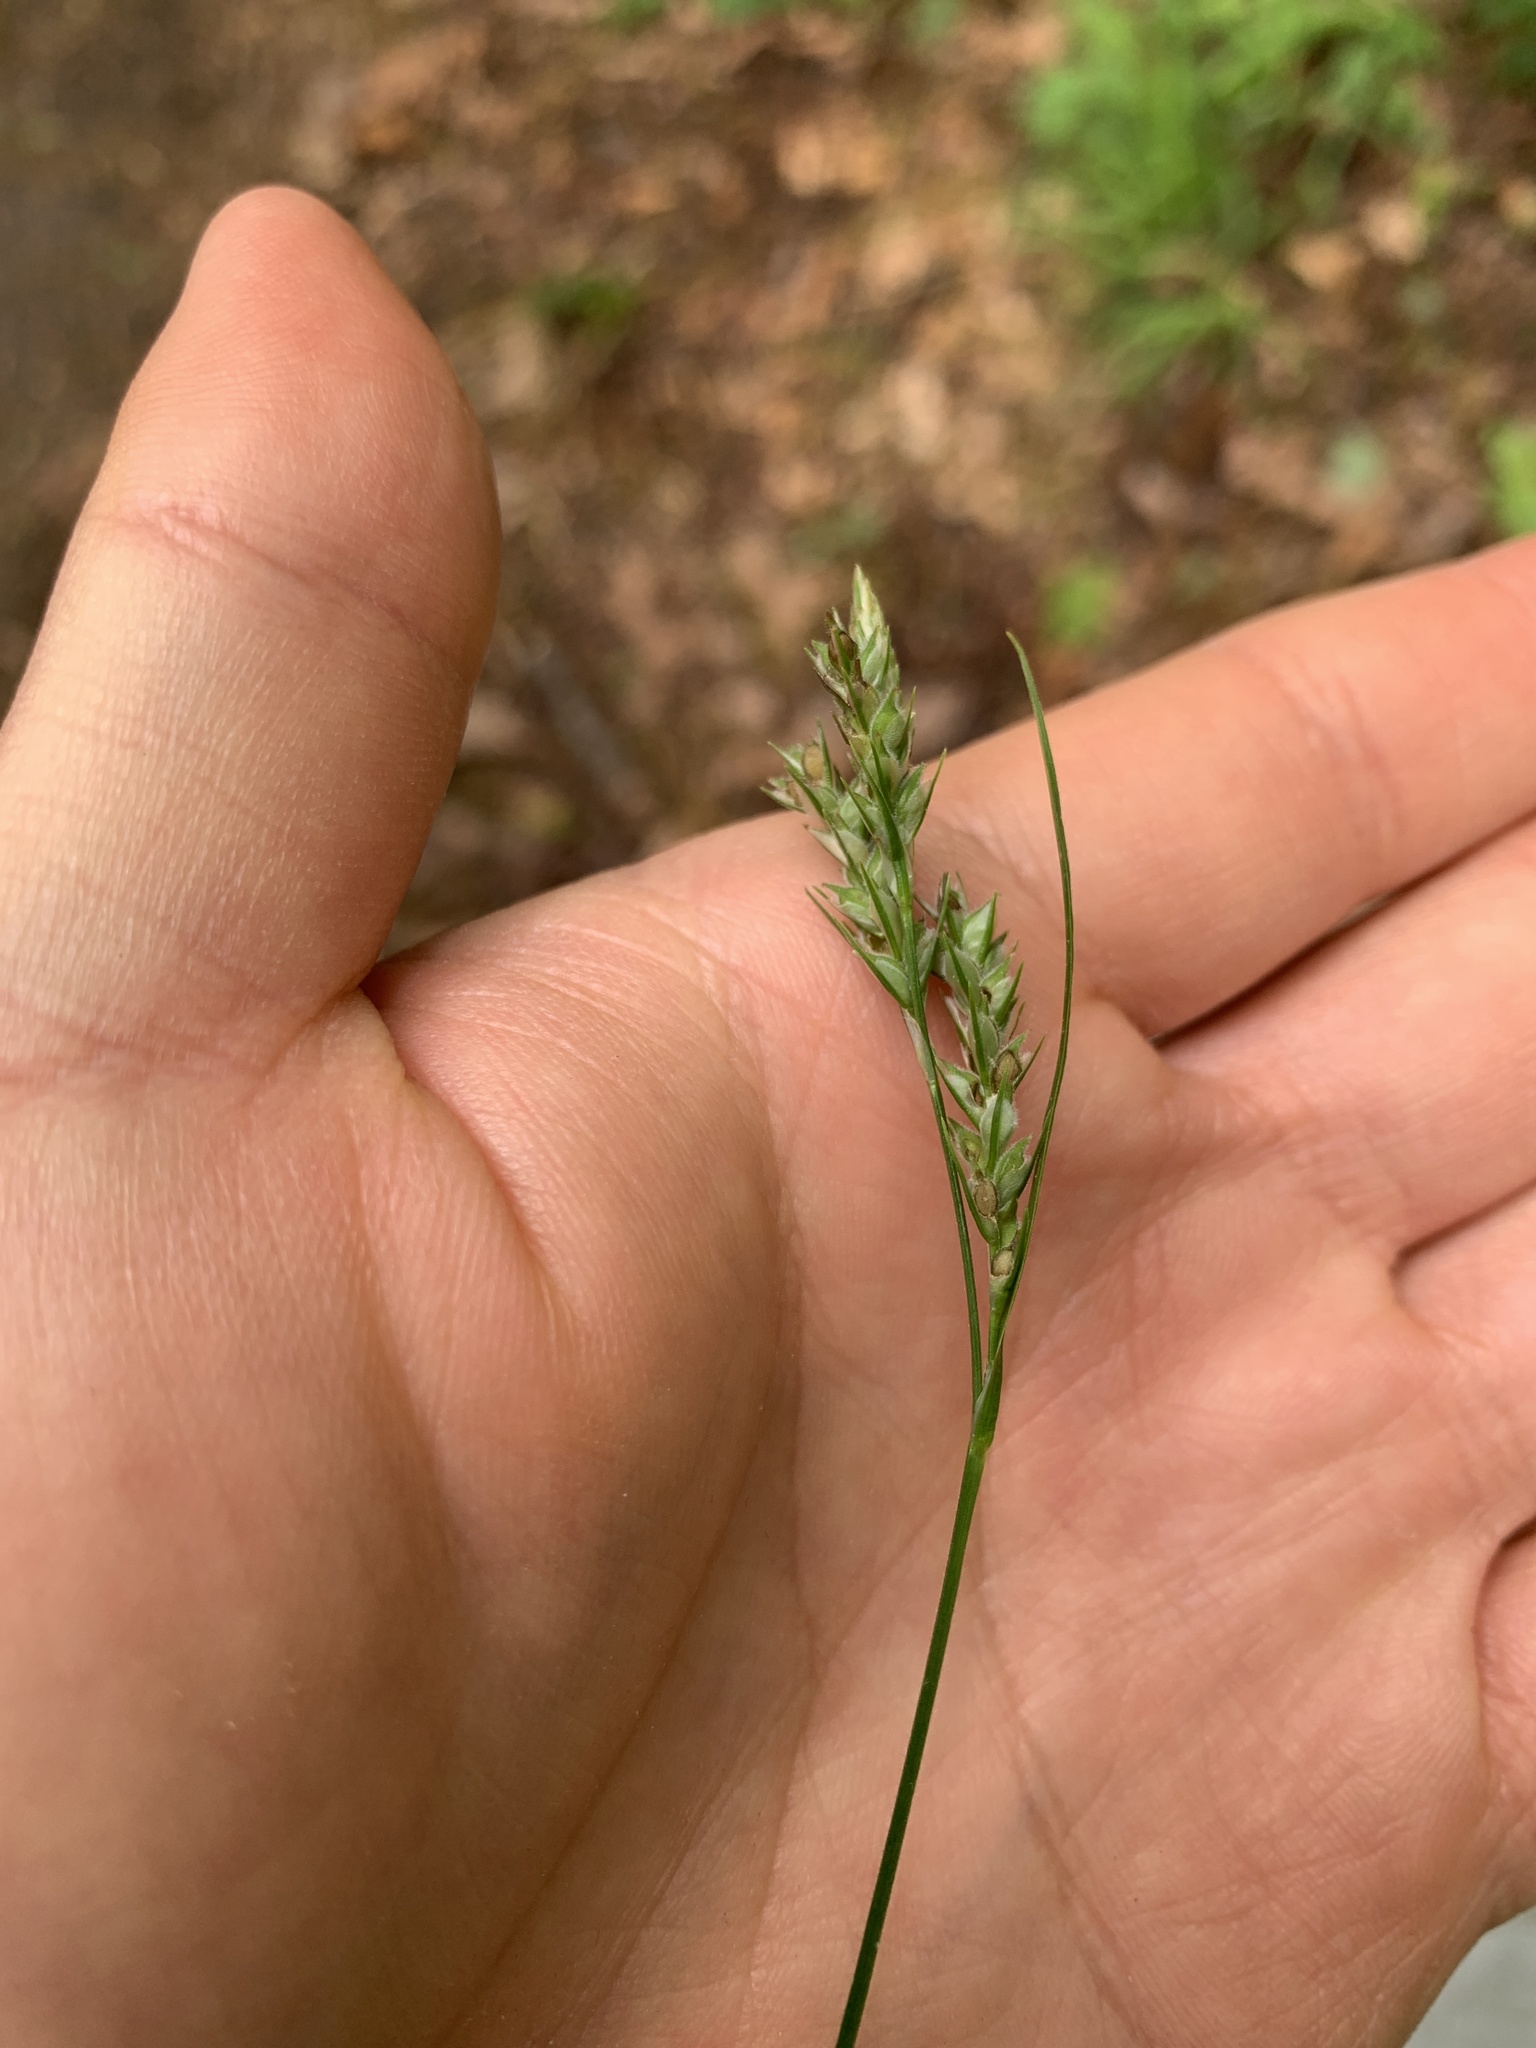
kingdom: Plantae
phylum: Tracheophyta
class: Liliopsida
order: Poales
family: Cyperaceae
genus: Carex
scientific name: Carex hirtifolia
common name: Hairy sedge
